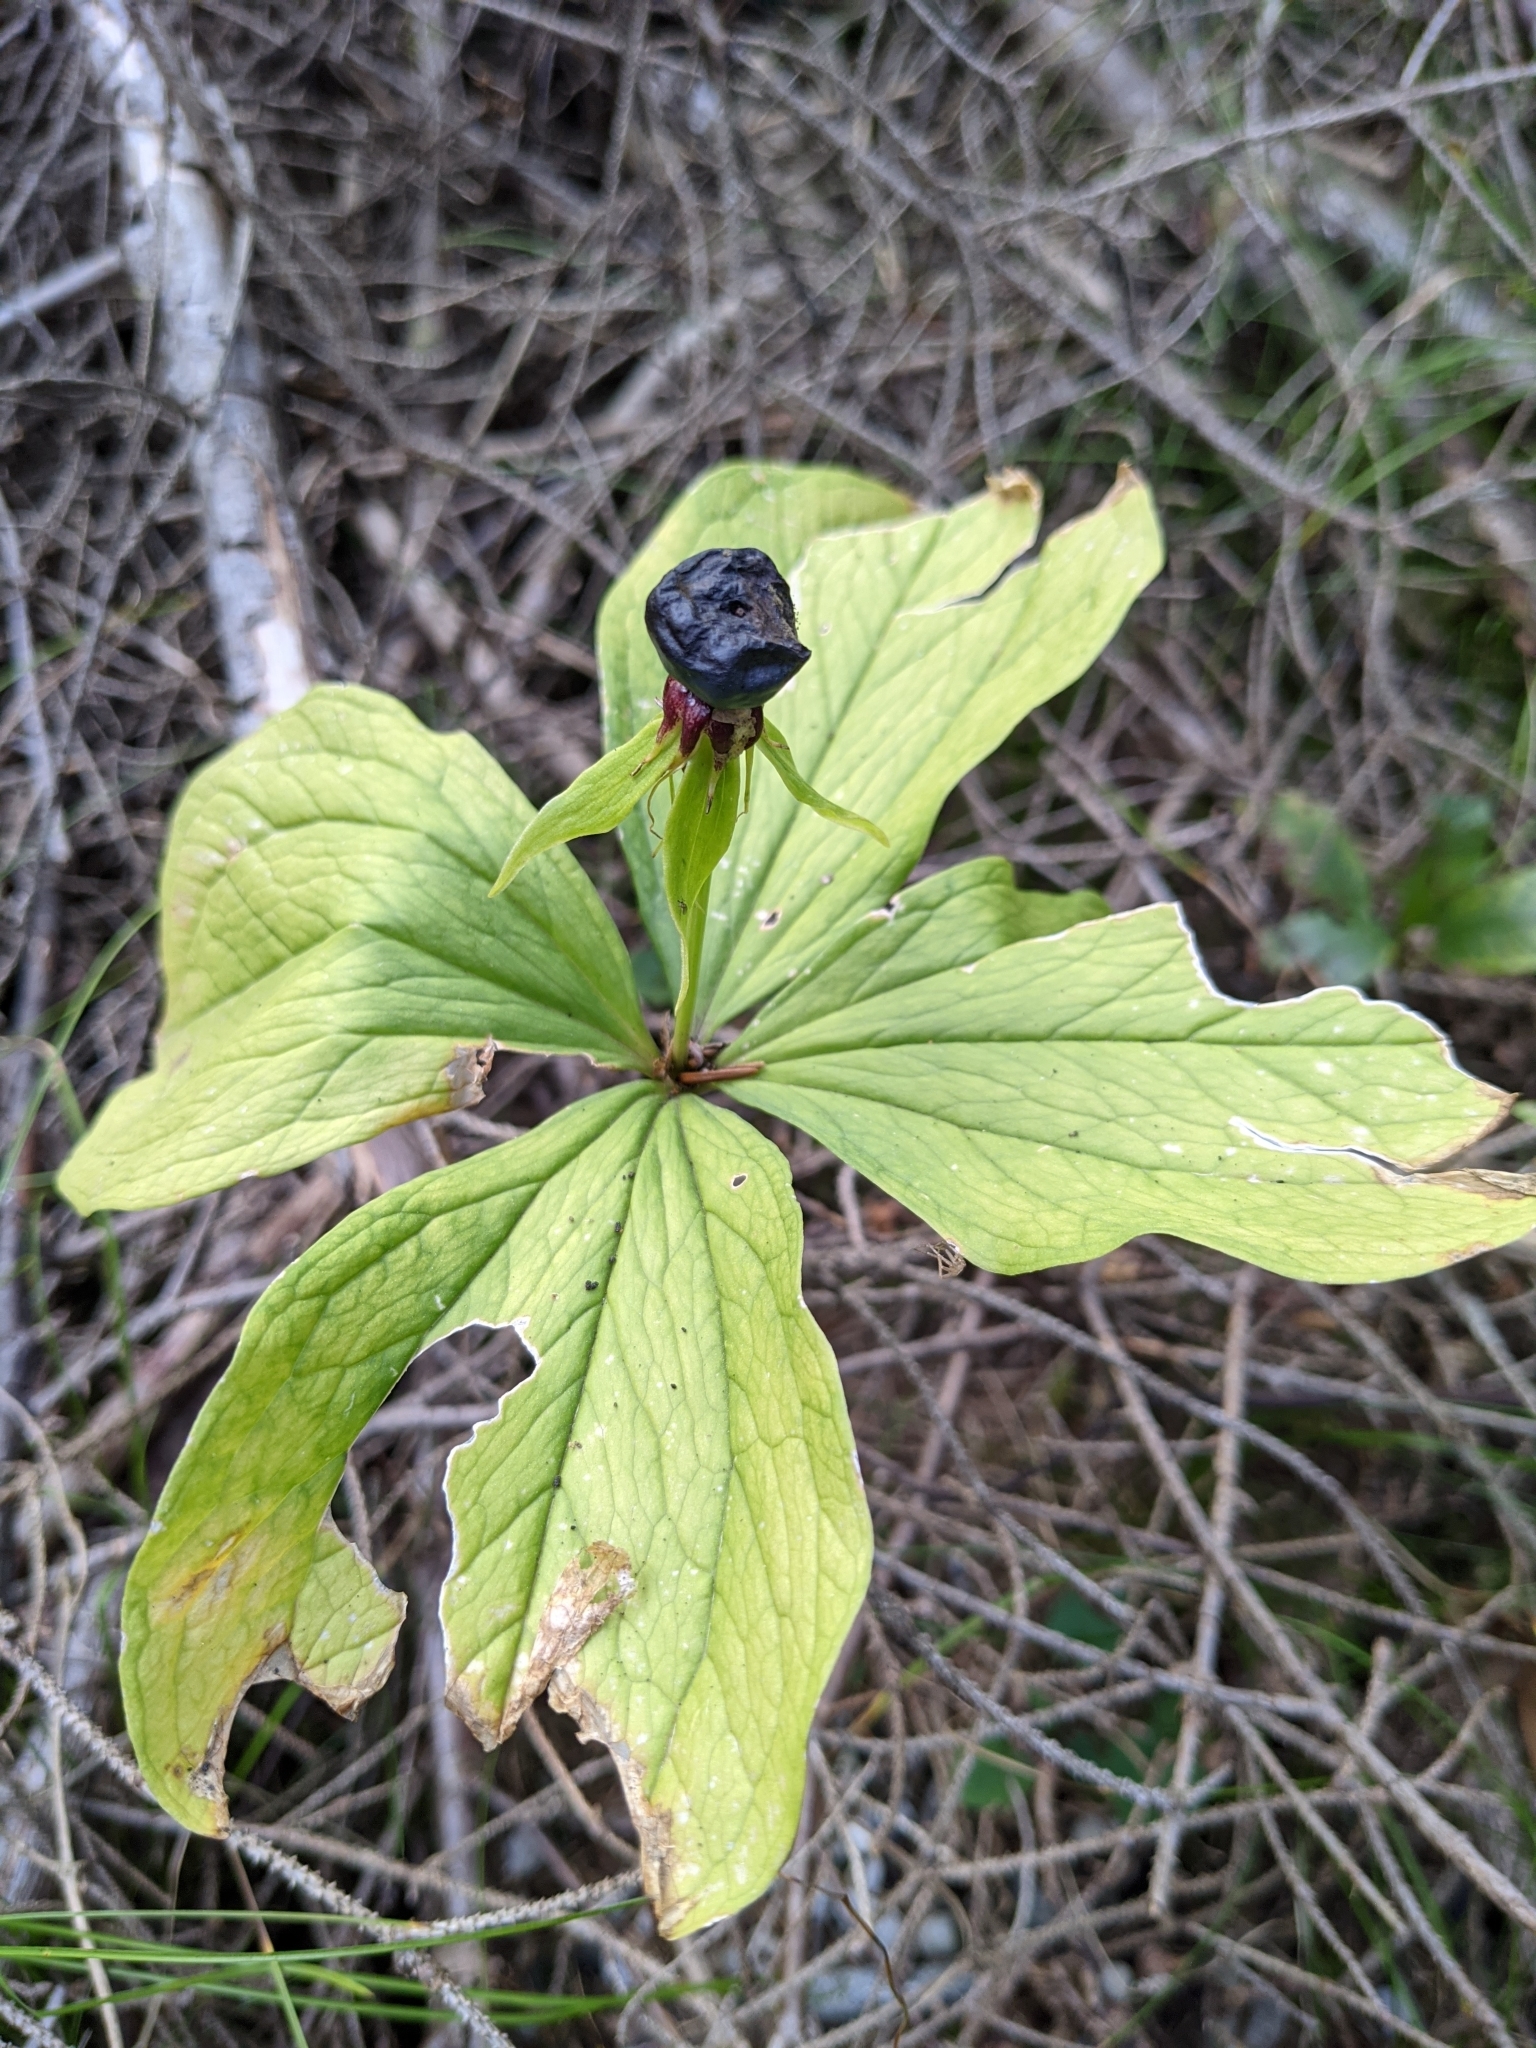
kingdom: Plantae
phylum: Tracheophyta
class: Liliopsida
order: Liliales
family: Melanthiaceae
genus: Paris
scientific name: Paris quadrifolia
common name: Herb-paris
